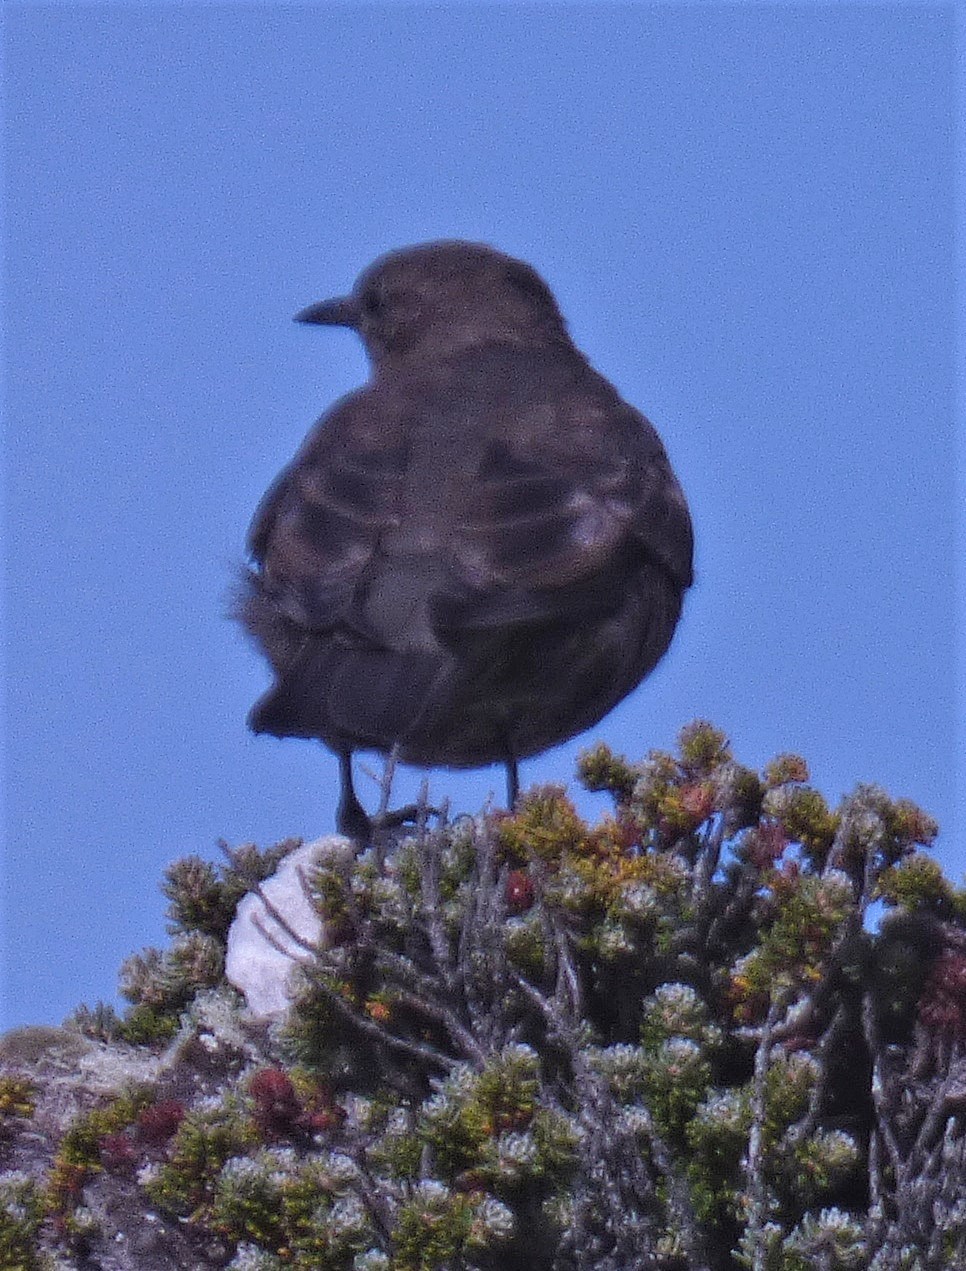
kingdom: Animalia
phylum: Chordata
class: Aves
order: Passeriformes
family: Furnariidae
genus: Cinclodes
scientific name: Cinclodes antarcticus
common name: Blackish cinclodes
